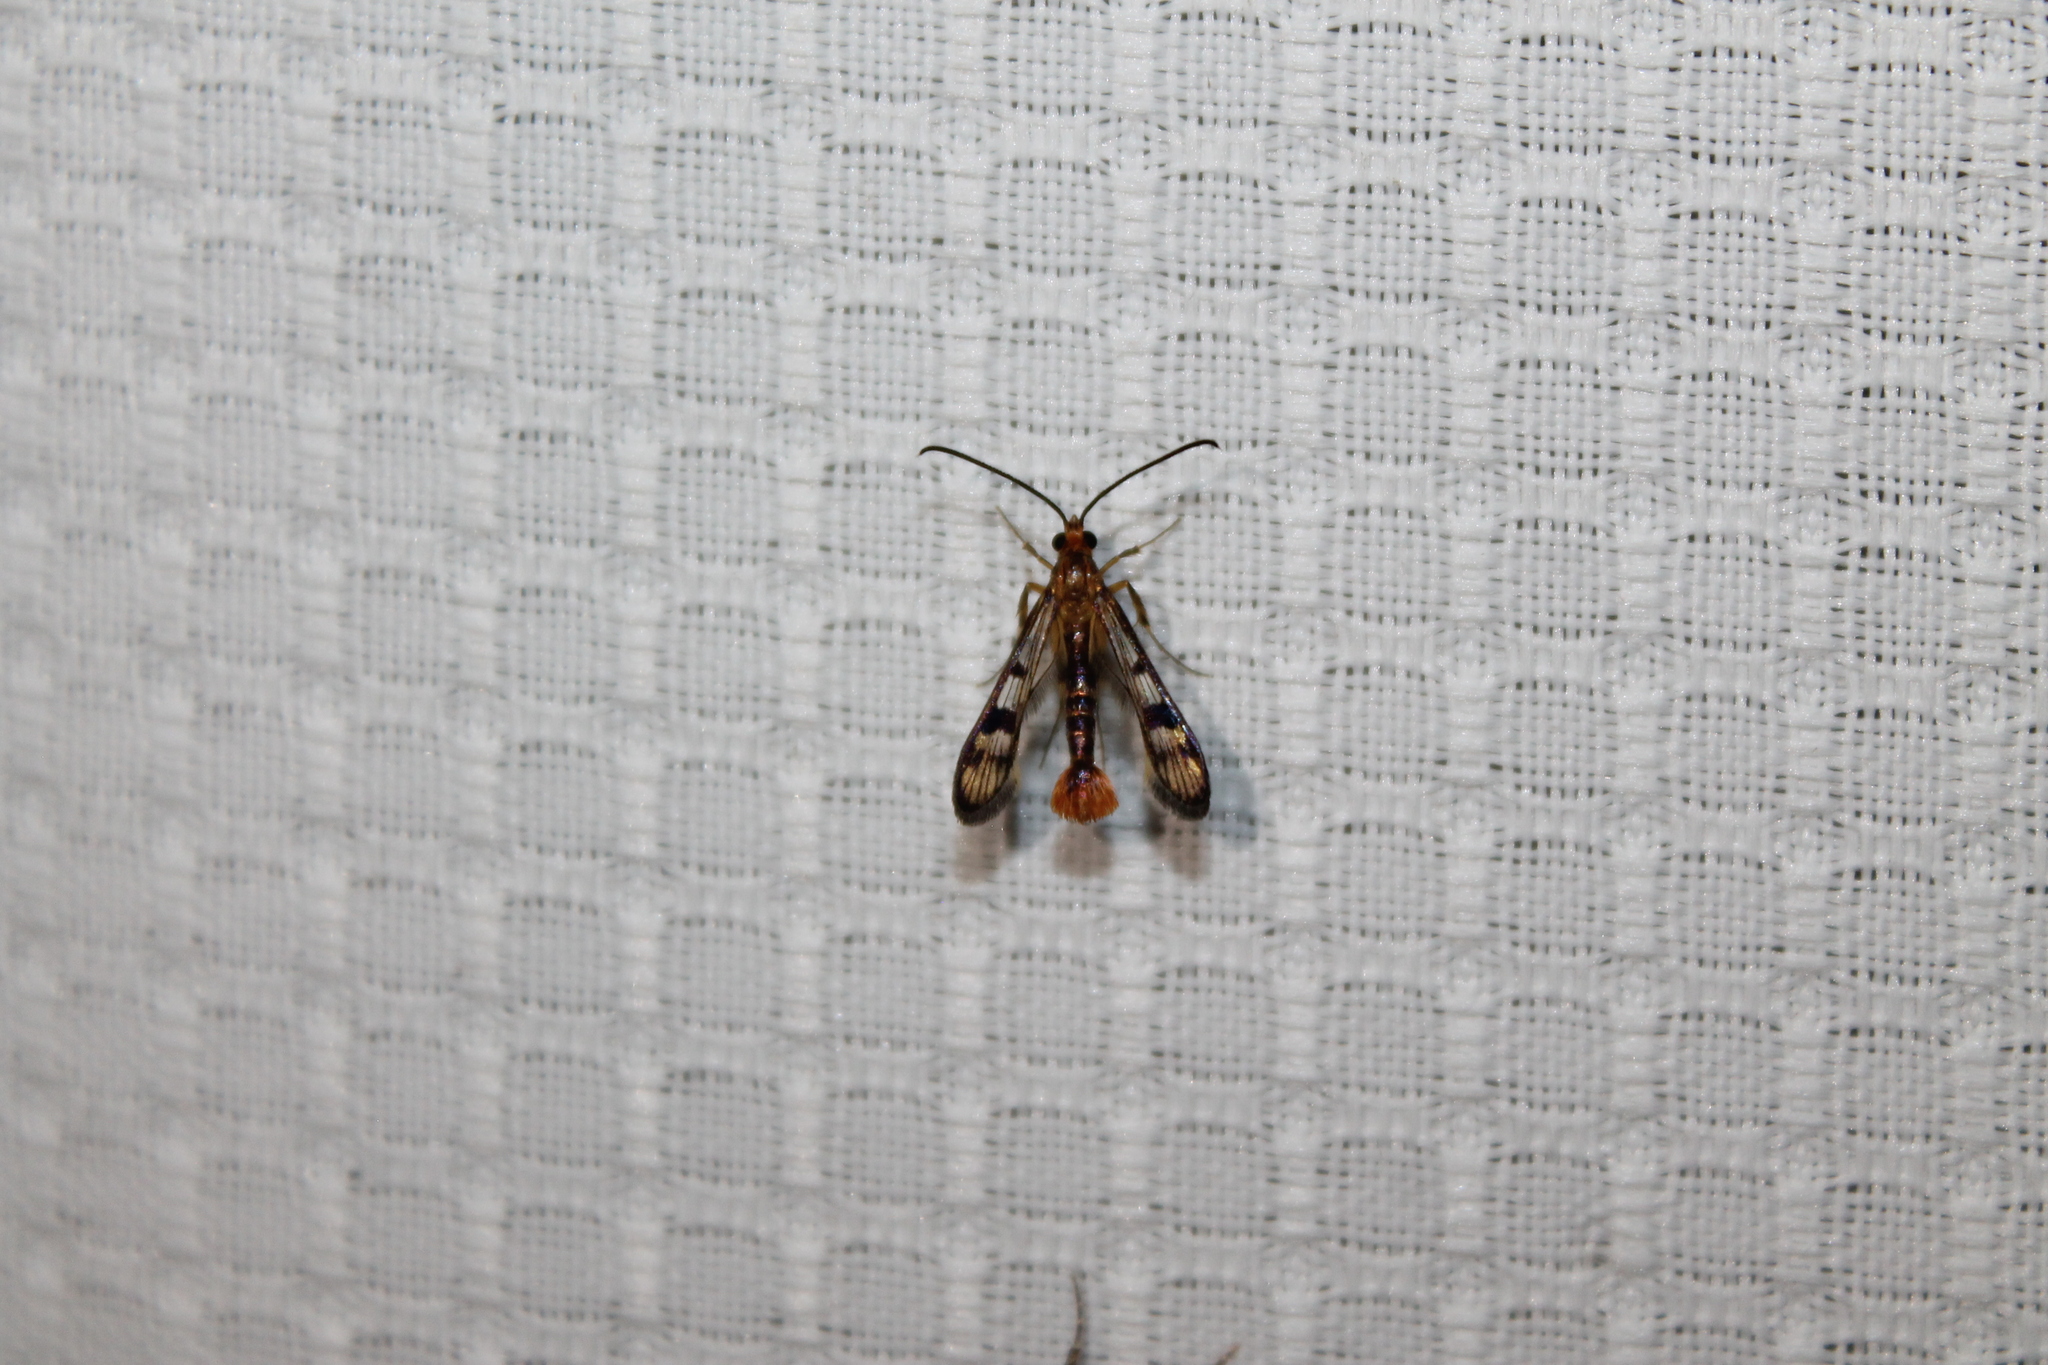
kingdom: Animalia
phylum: Arthropoda
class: Insecta
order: Lepidoptera
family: Sesiidae
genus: Synanthedon
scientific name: Synanthedon acerni
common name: Maple callus borer moth
